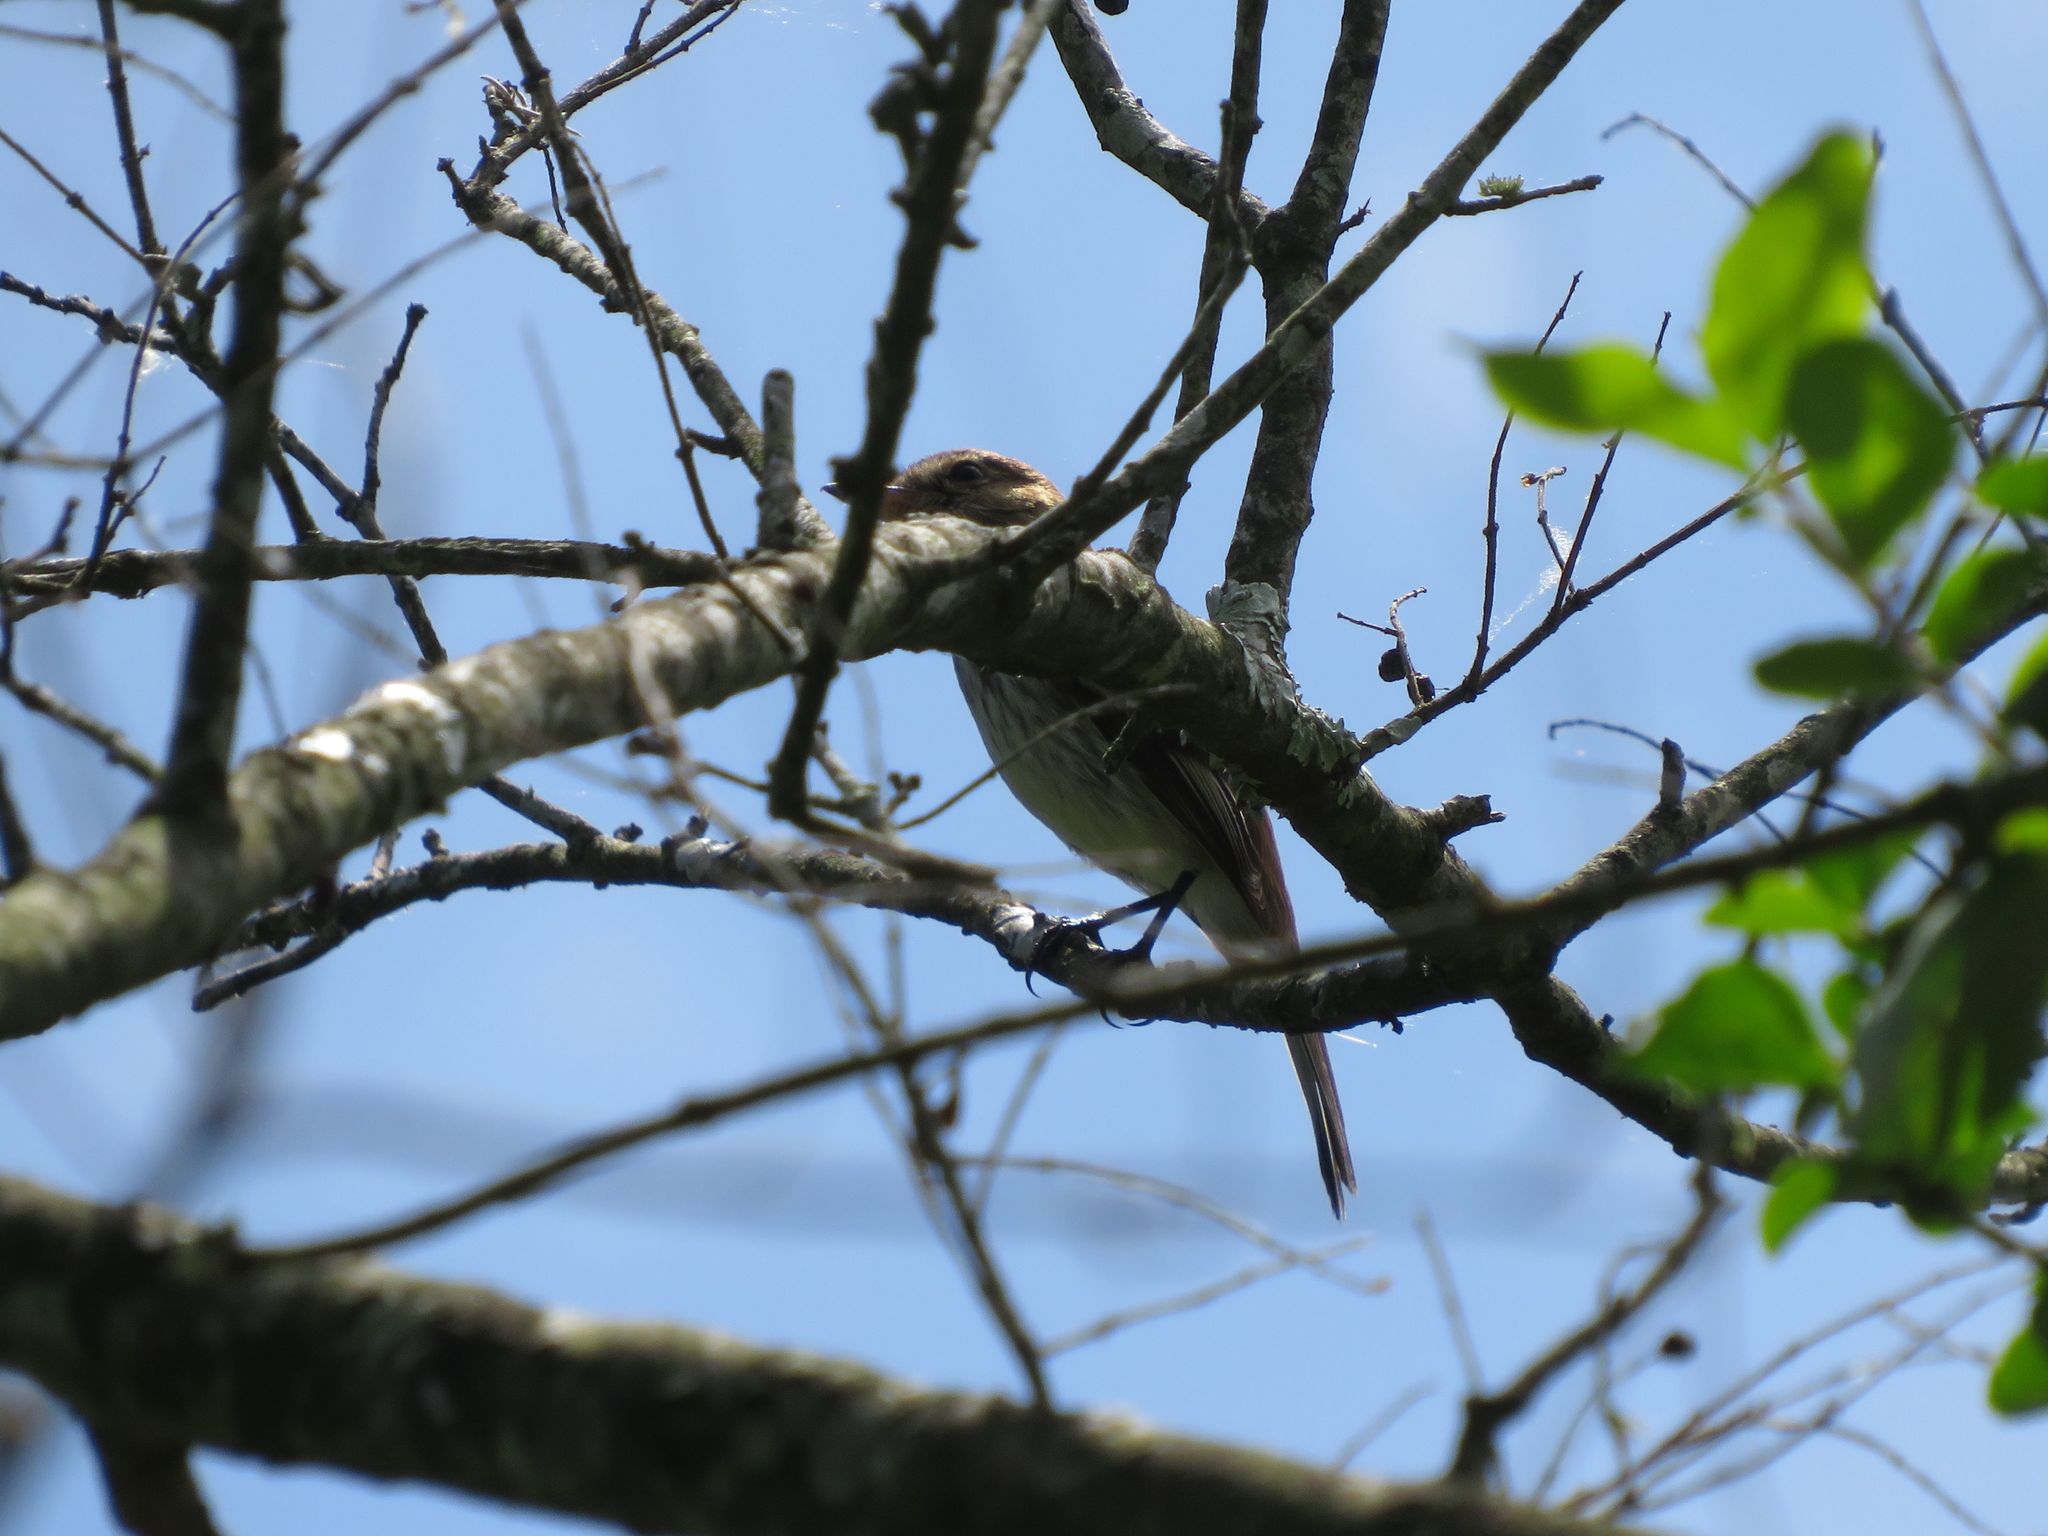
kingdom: Animalia
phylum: Chordata
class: Aves
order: Passeriformes
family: Tyrannidae
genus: Myiophobus
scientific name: Myiophobus fasciatus
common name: Bran-colored flycatcher
